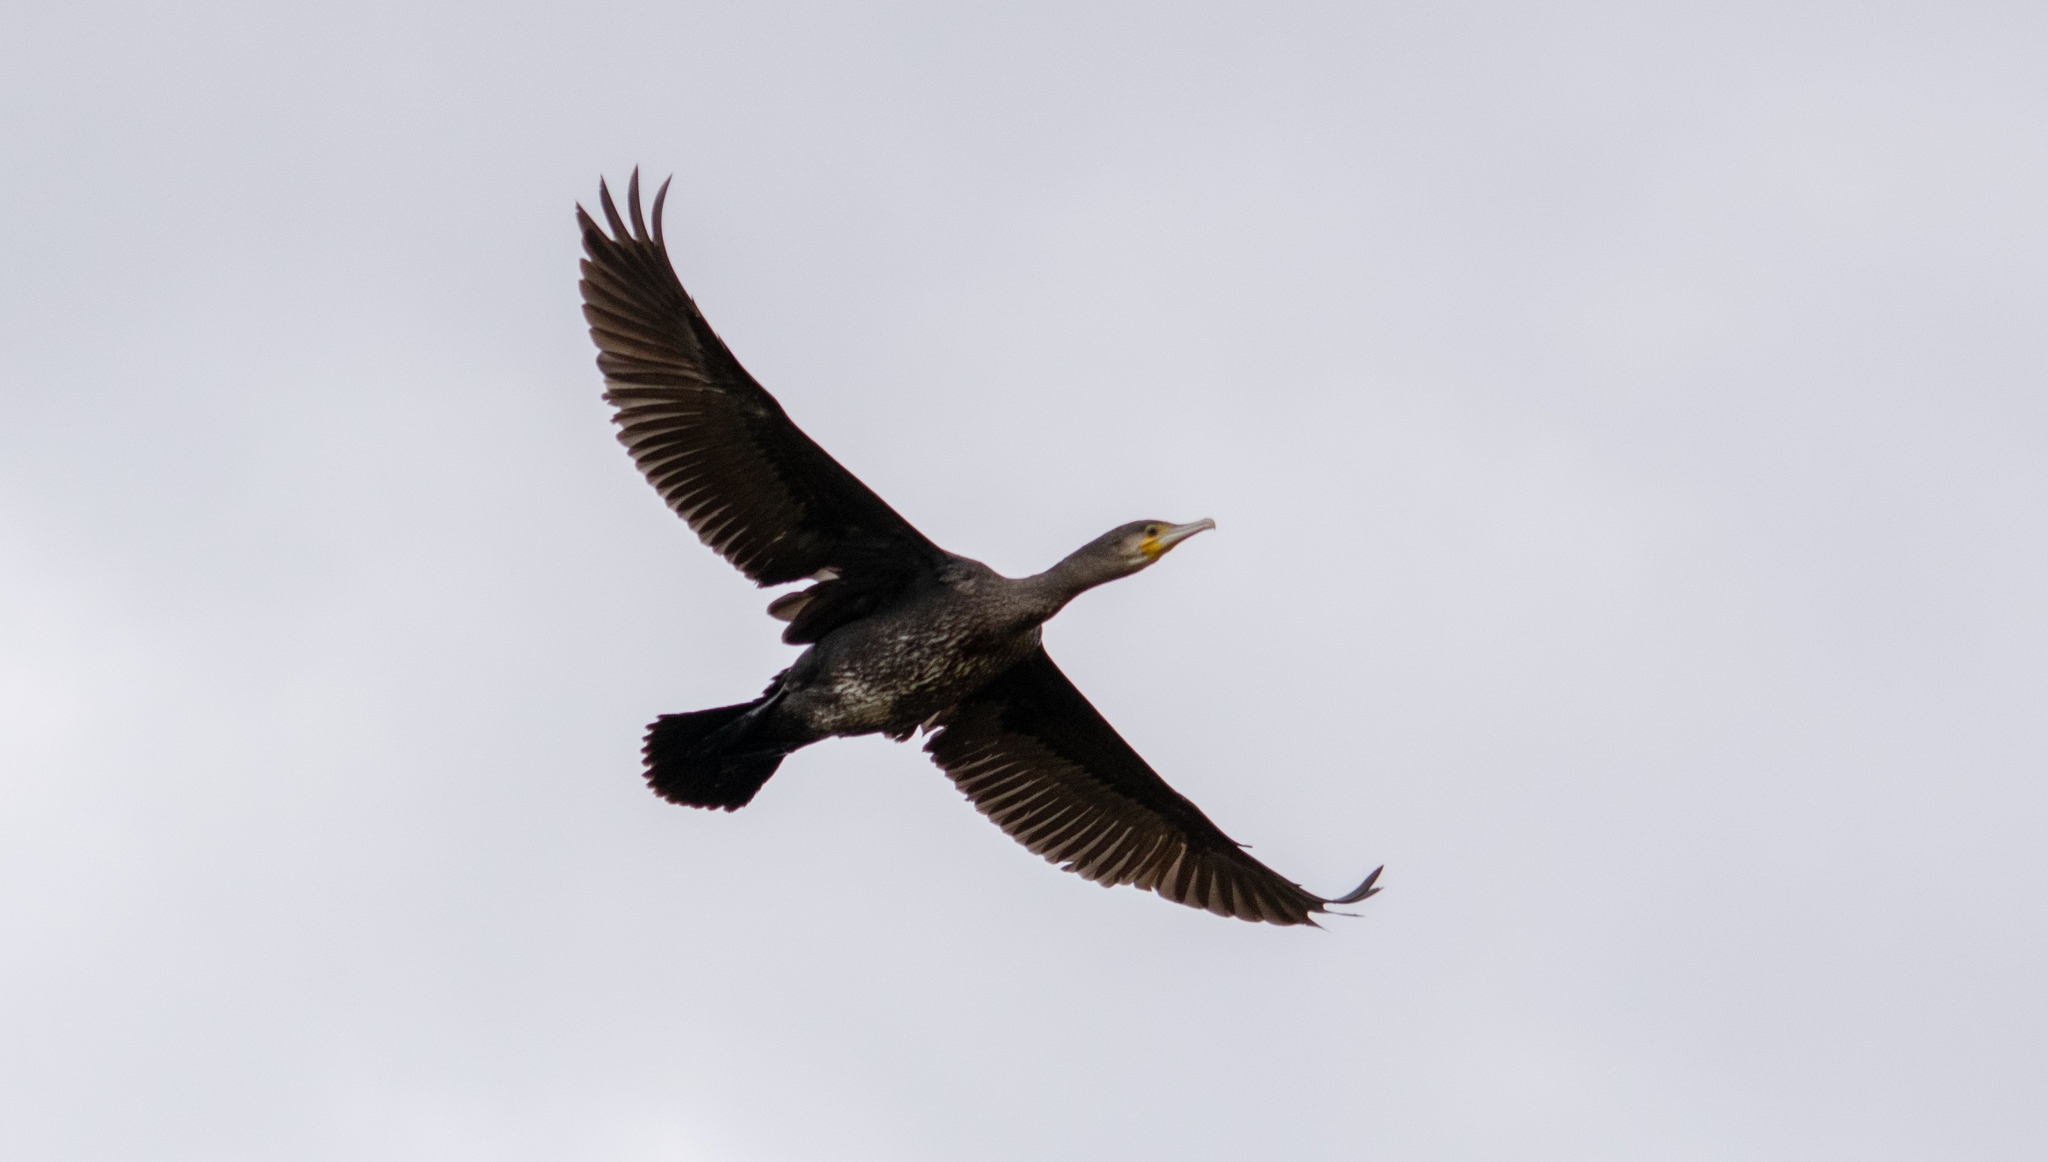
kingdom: Animalia
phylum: Chordata
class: Aves
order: Suliformes
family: Phalacrocoracidae
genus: Phalacrocorax
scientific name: Phalacrocorax carbo
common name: Great cormorant
